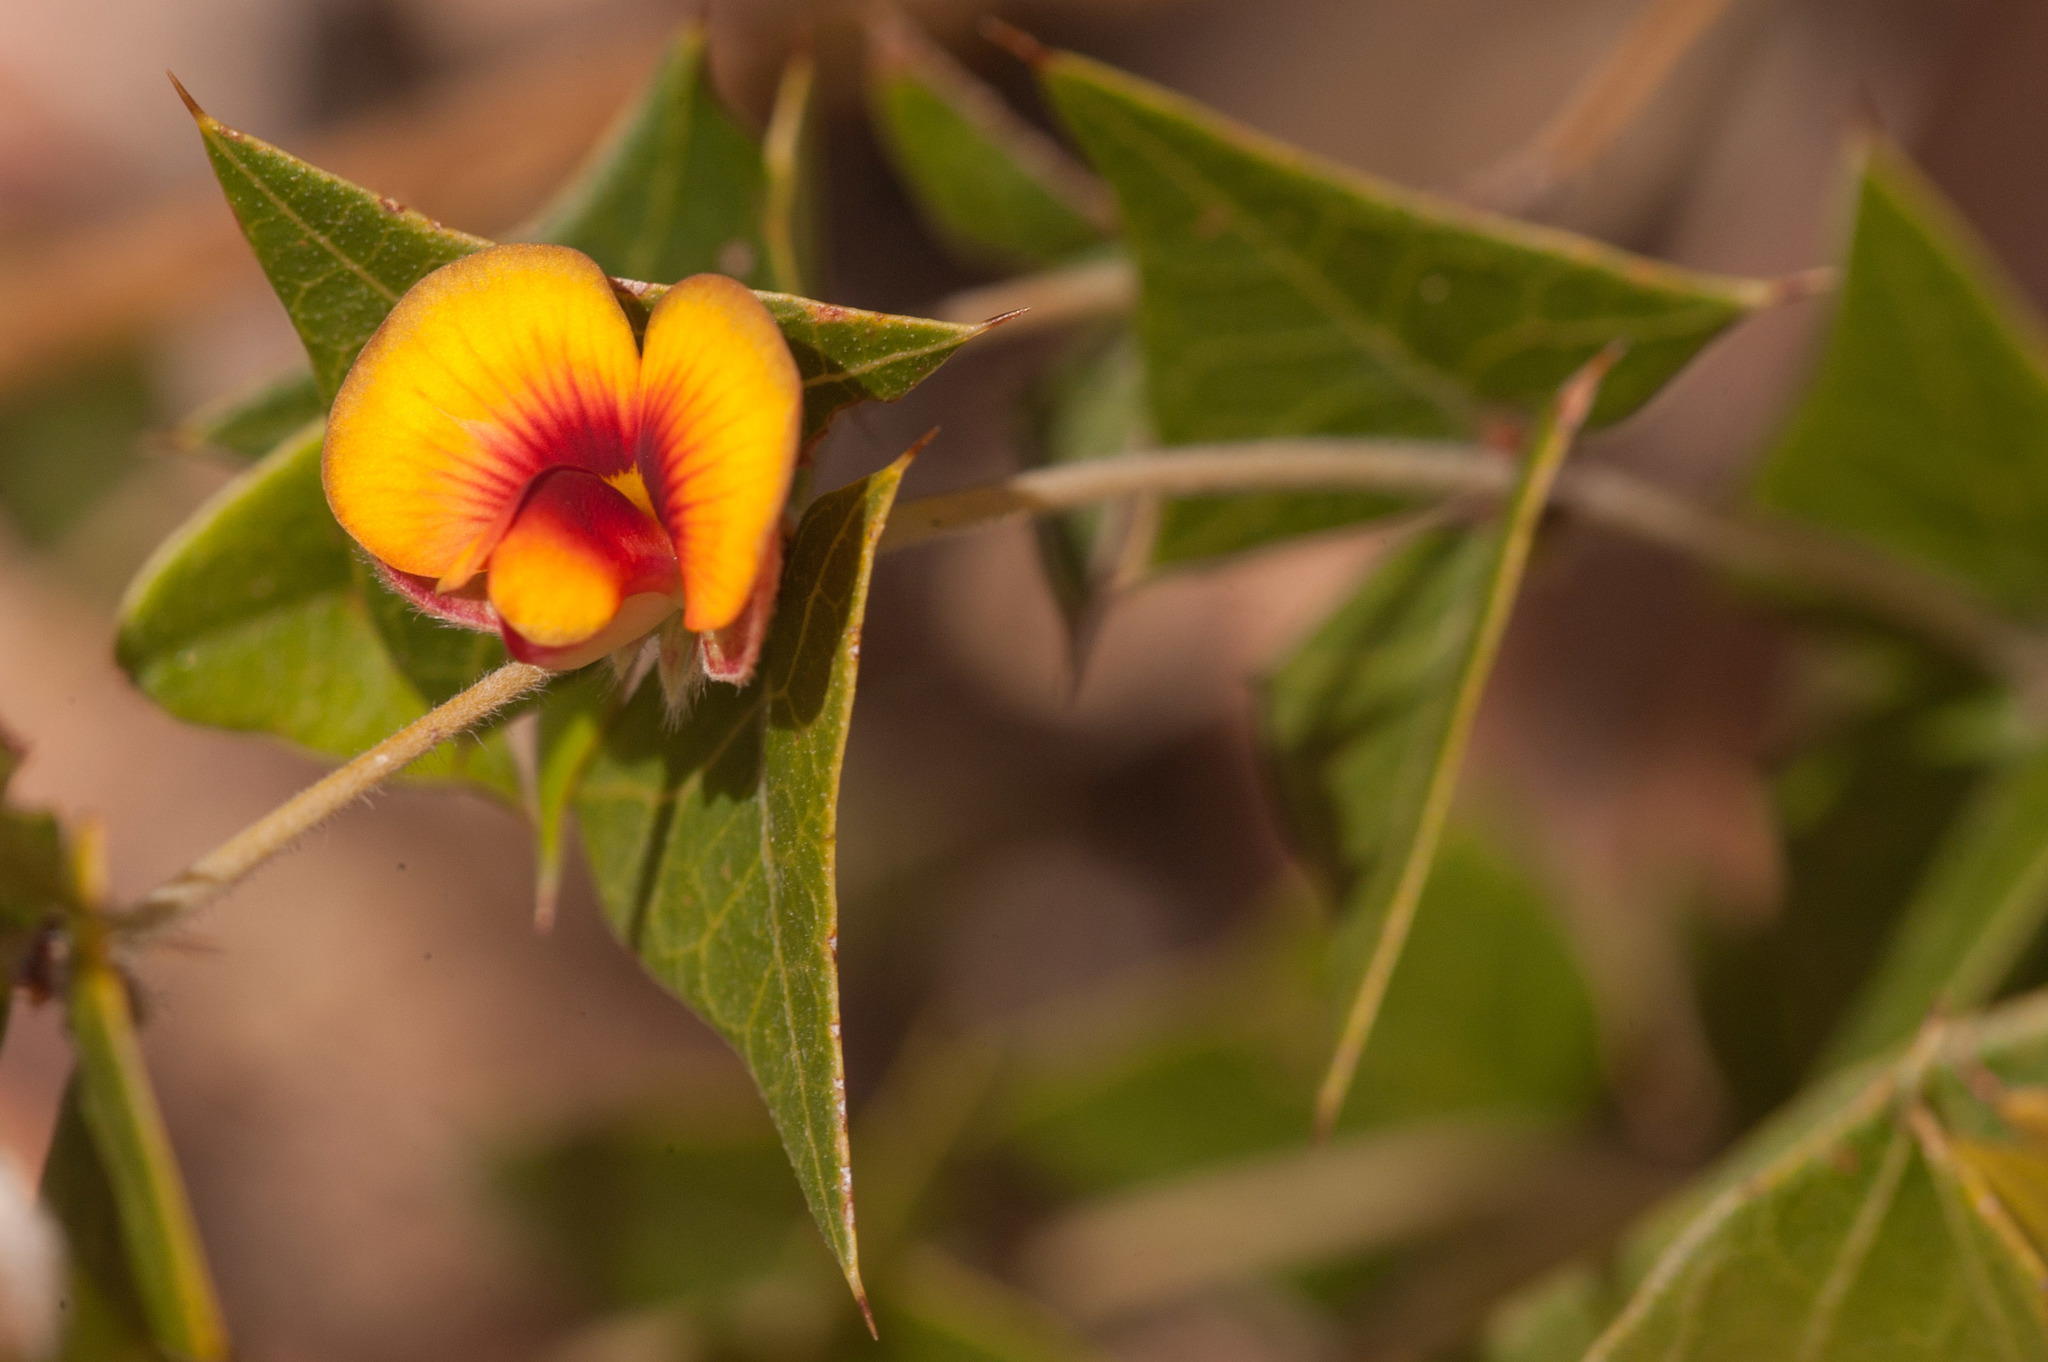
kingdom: Plantae
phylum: Tracheophyta
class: Magnoliopsida
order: Fabales
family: Fabaceae
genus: Platylobium
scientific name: Platylobium obtusangulum
